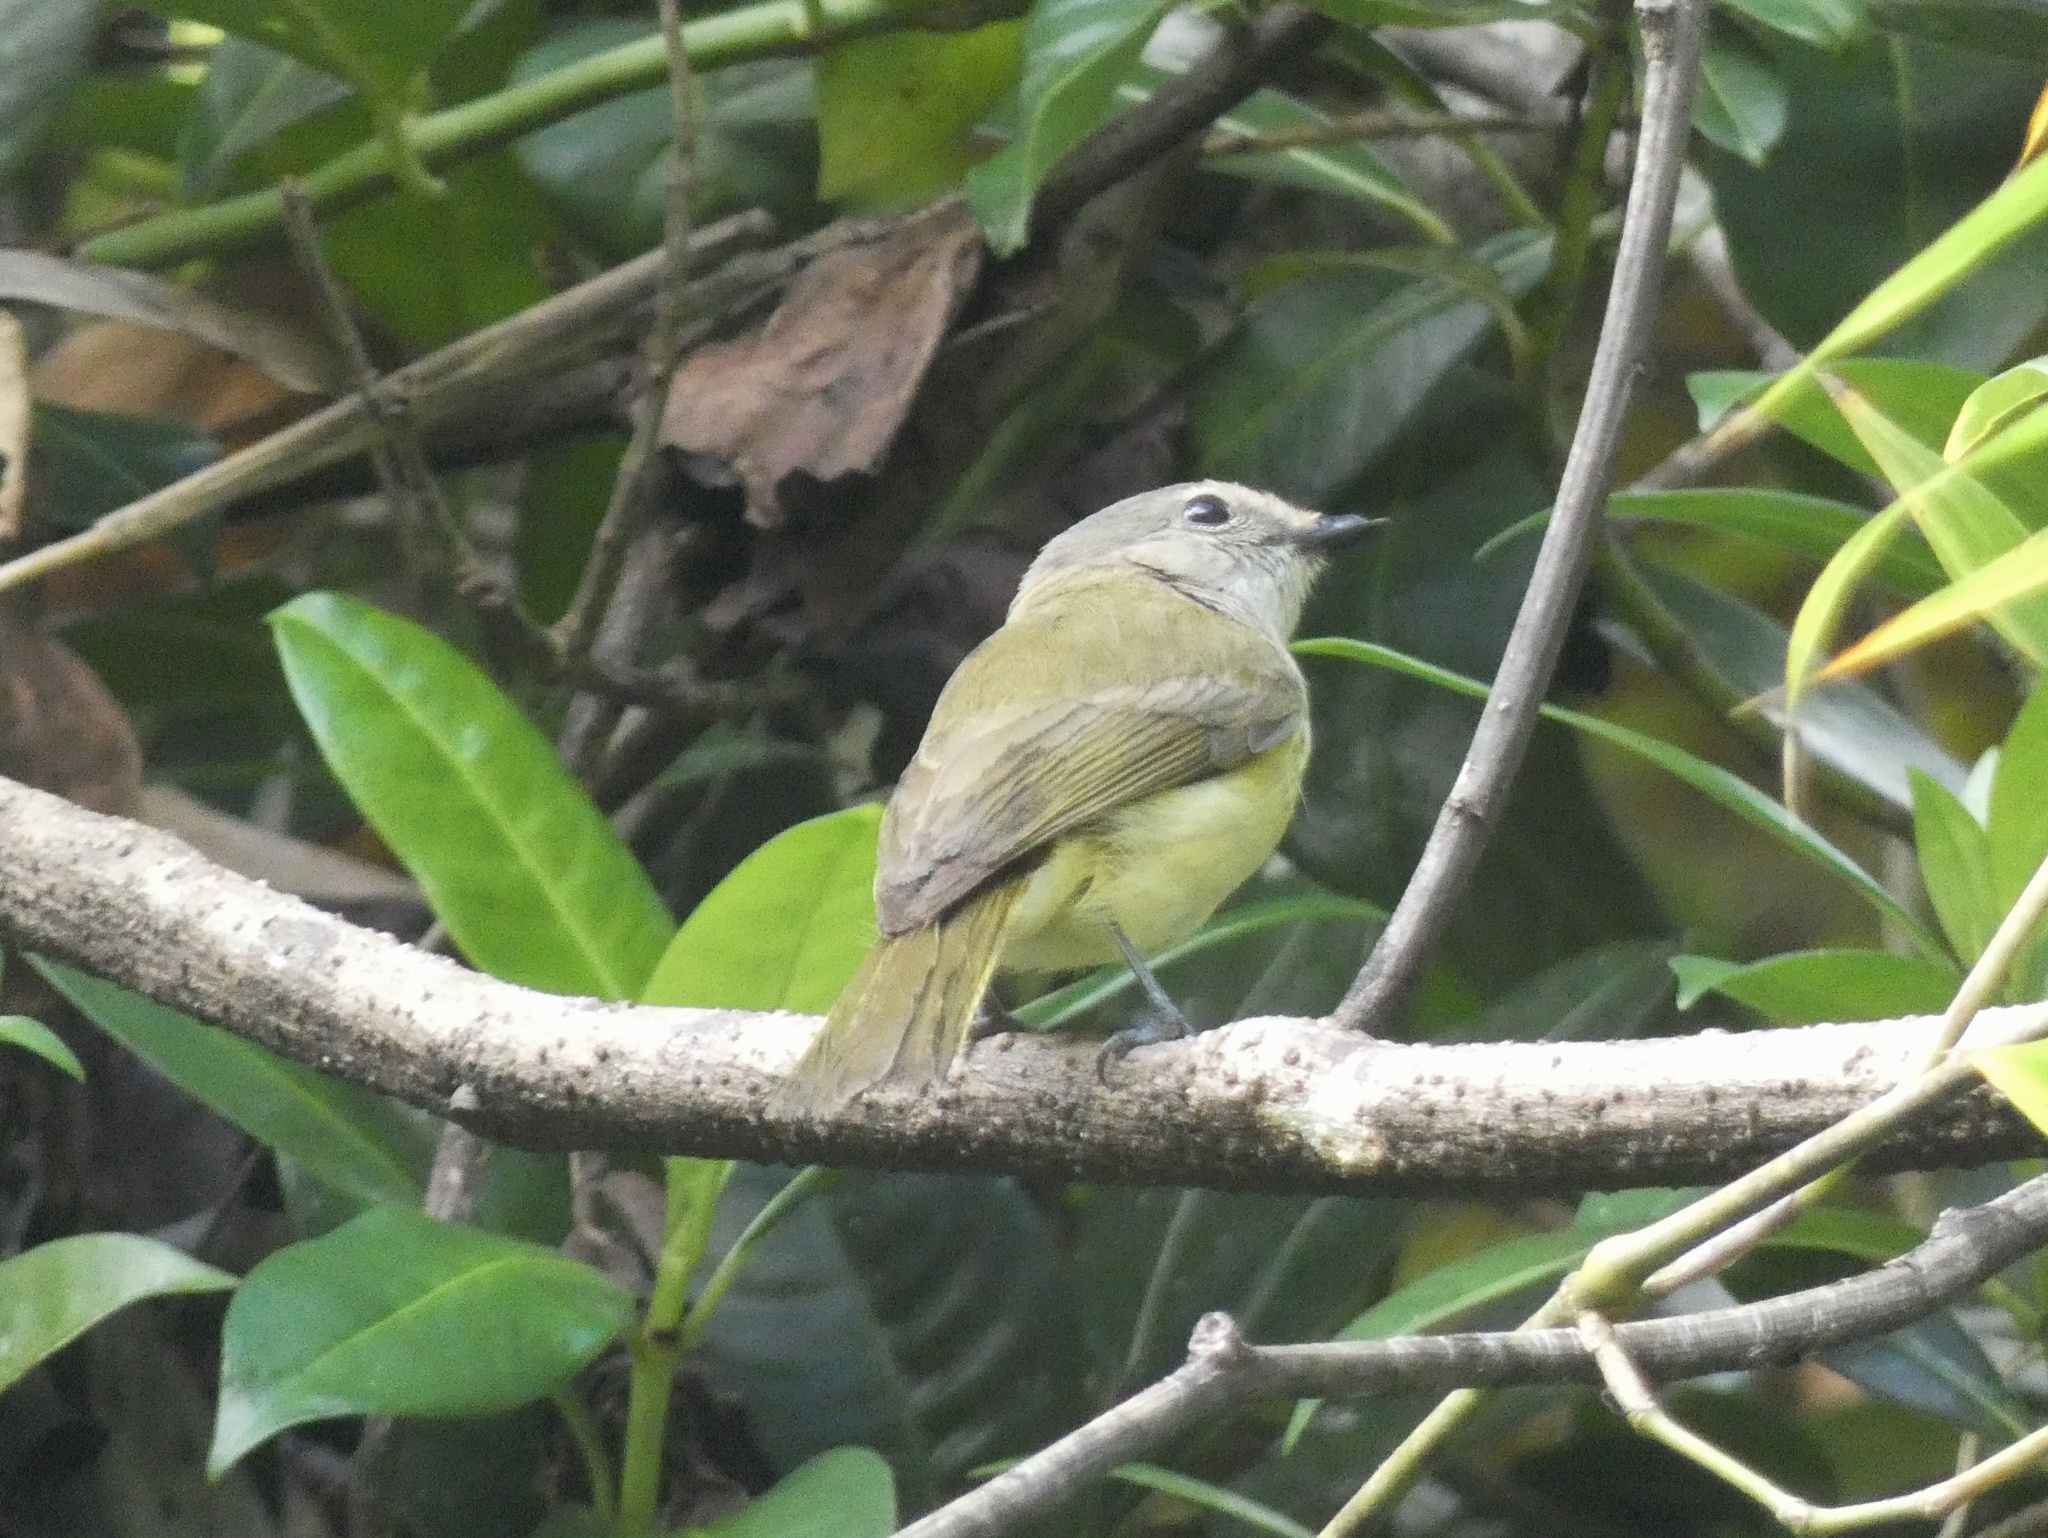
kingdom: Animalia
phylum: Chordata
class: Aves
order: Passeriformes
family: Petroicidae
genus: Microeca
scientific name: Microeca flavigaster
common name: Lemon-bellied flyrobin
